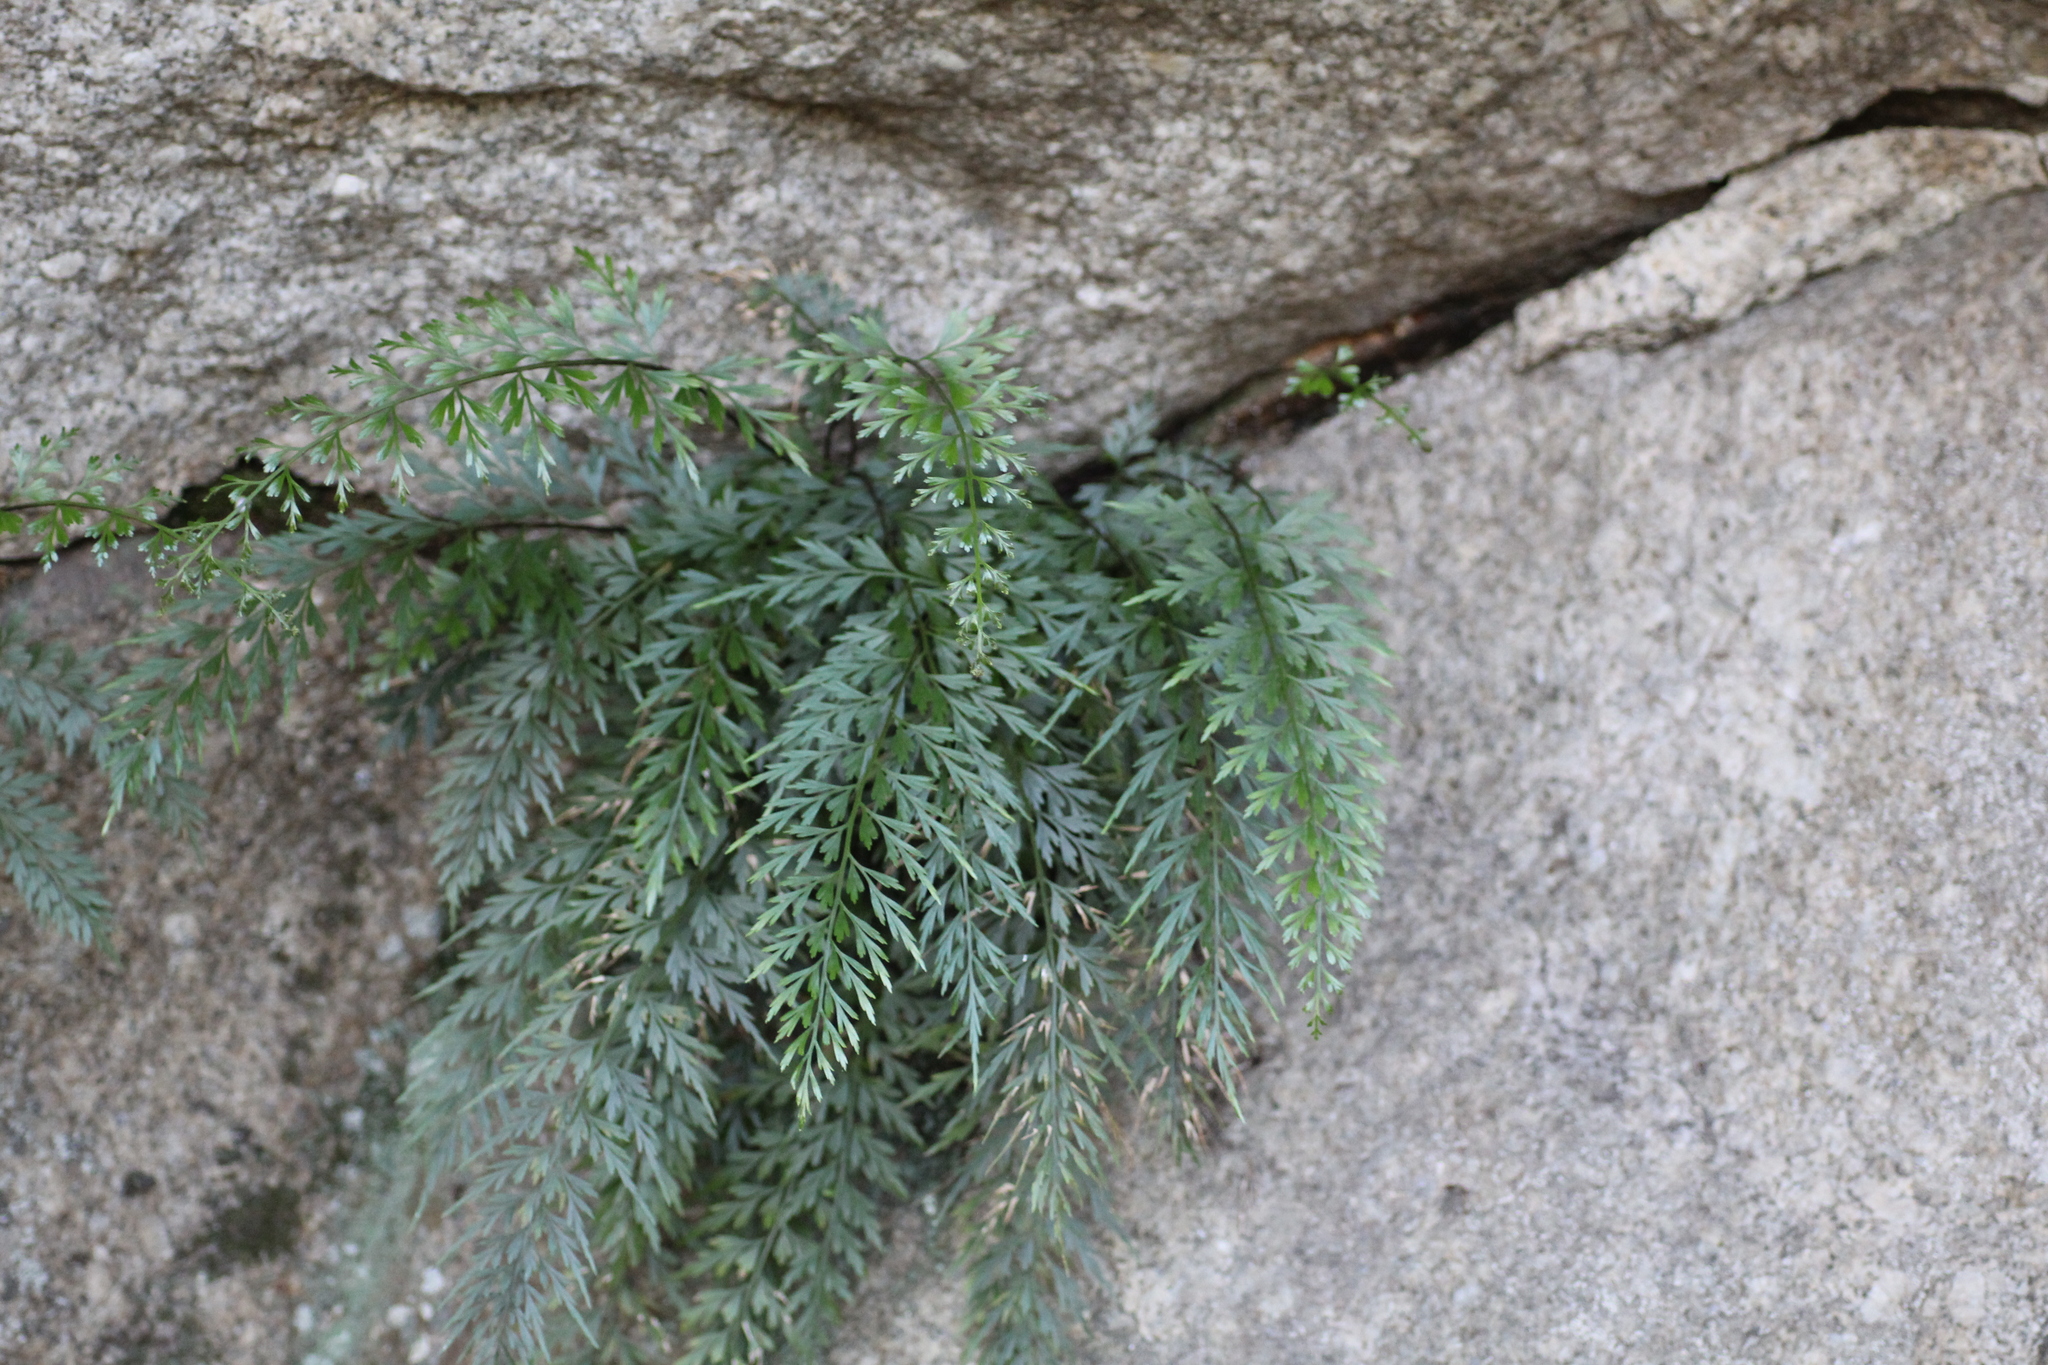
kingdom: Plantae
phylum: Tracheophyta
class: Polypodiopsida
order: Polypodiales
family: Aspleniaceae
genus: Asplenium
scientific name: Asplenium aethiopicum
